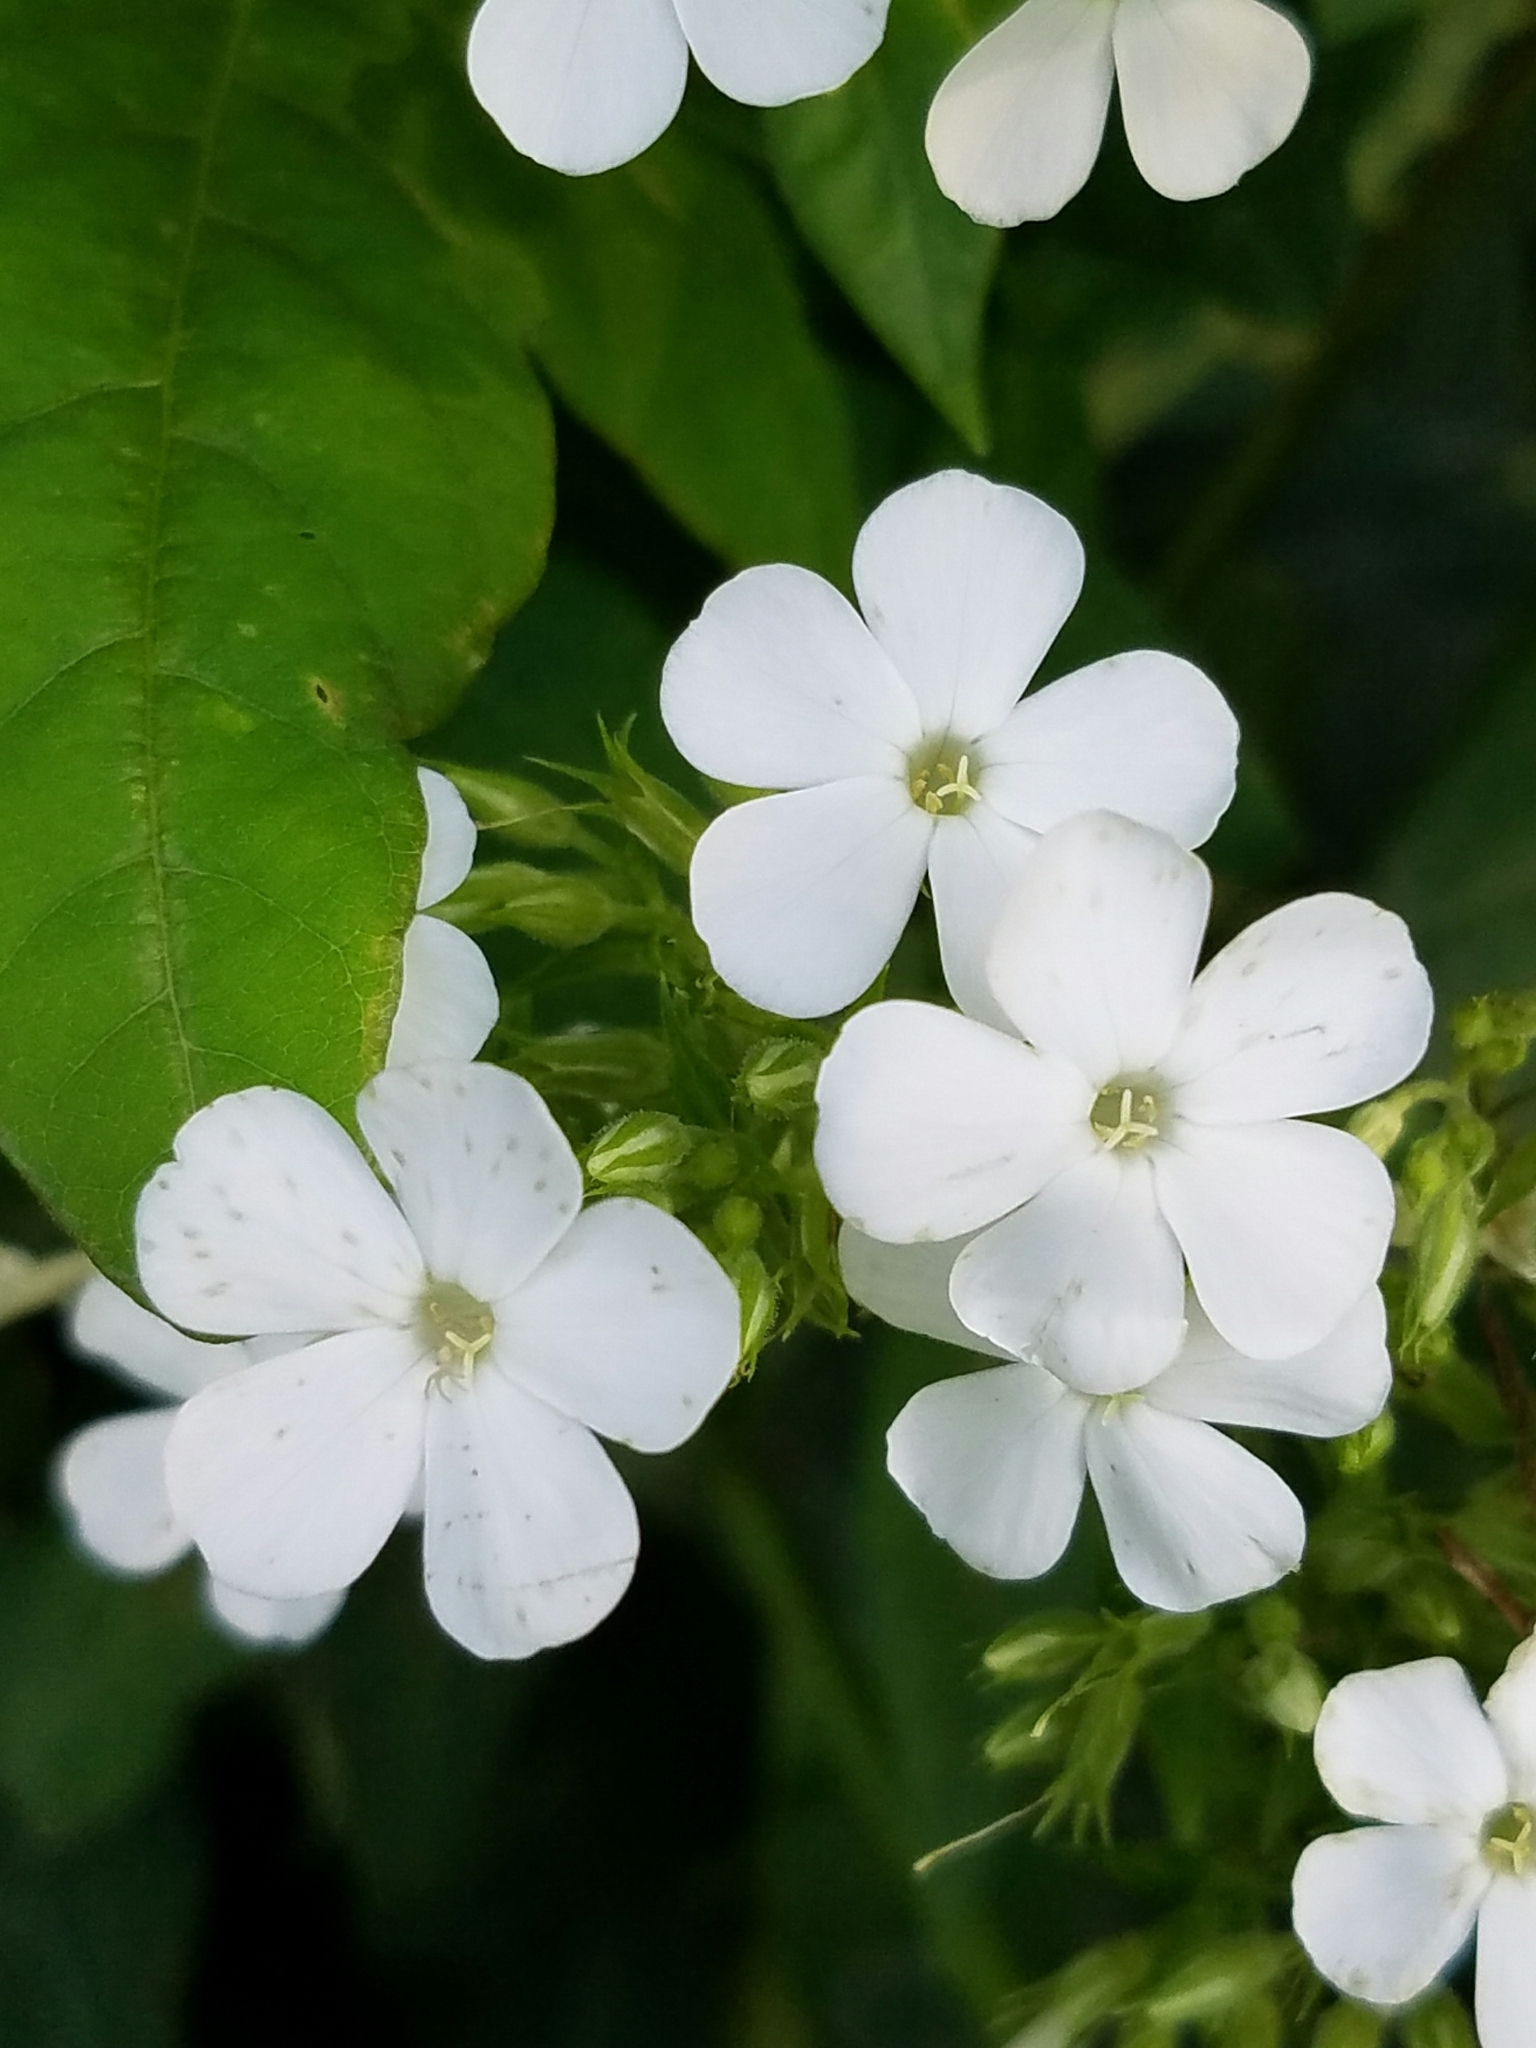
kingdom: Plantae
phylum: Tracheophyta
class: Magnoliopsida
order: Ericales
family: Polemoniaceae
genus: Phlox
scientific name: Phlox paniculata
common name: Fall phlox
